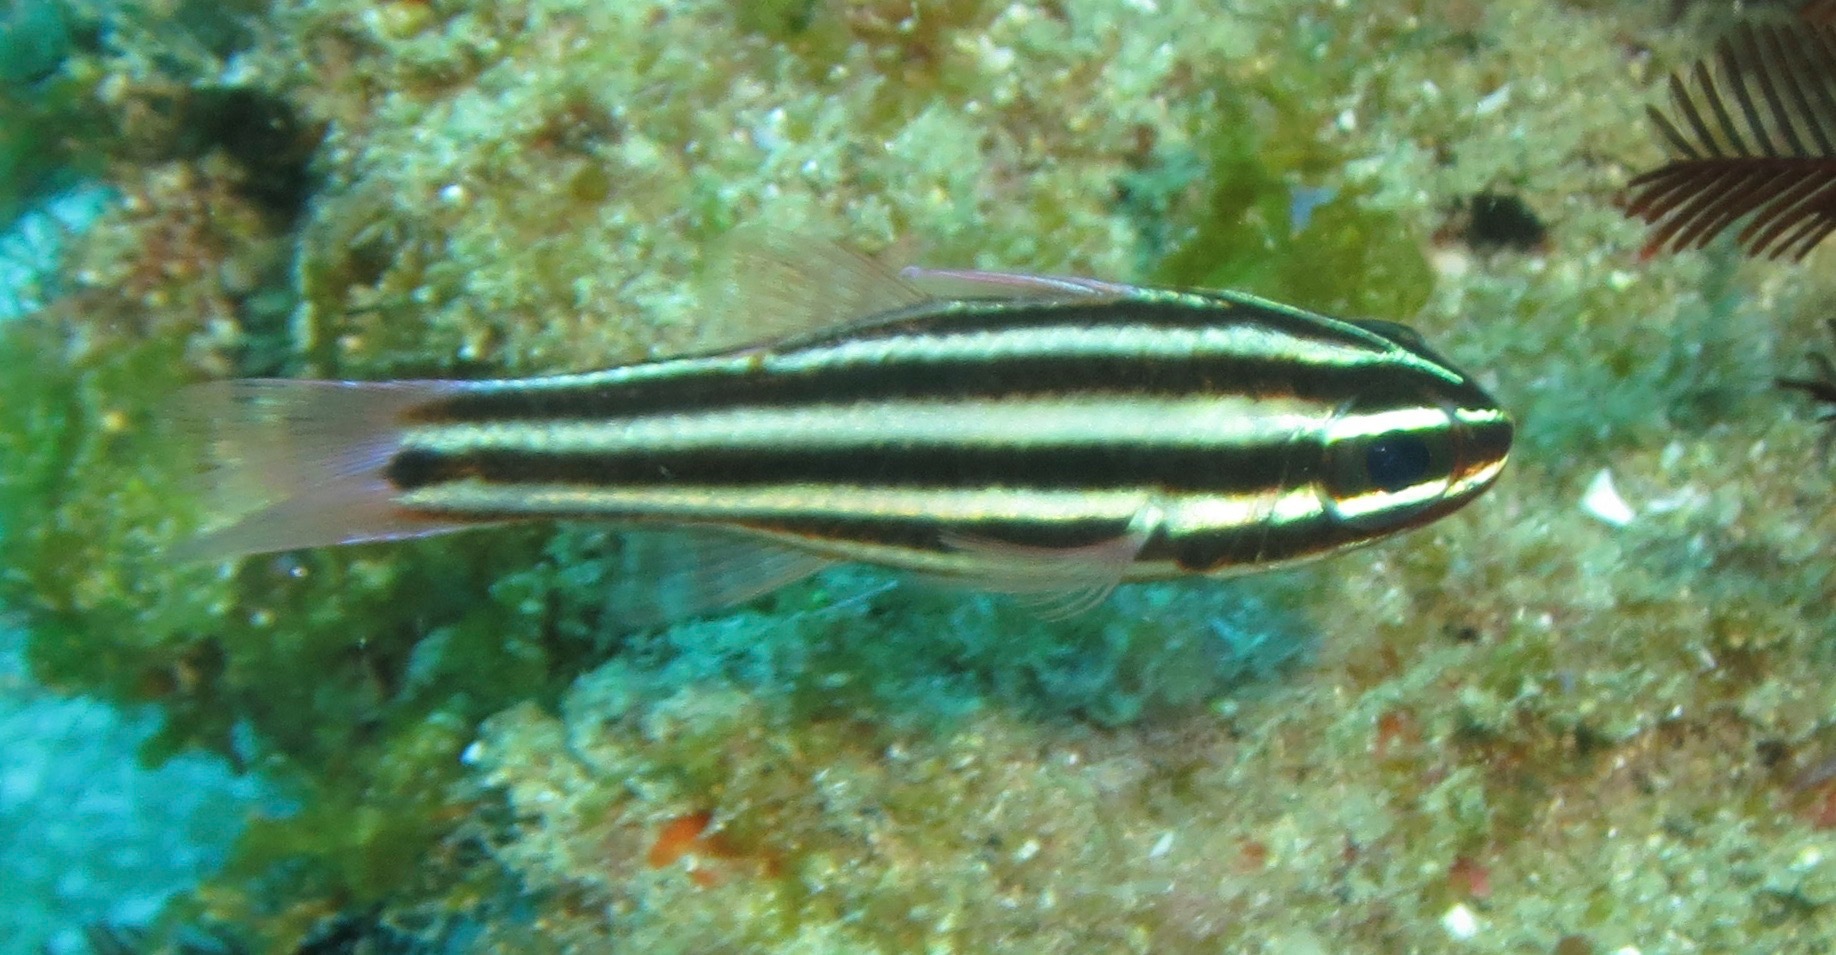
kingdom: Animalia
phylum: Chordata
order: Perciformes
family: Apogonidae
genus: Ostorhinchus
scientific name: Ostorhinchus angustatus
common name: Narrow-striped cardinalfish
